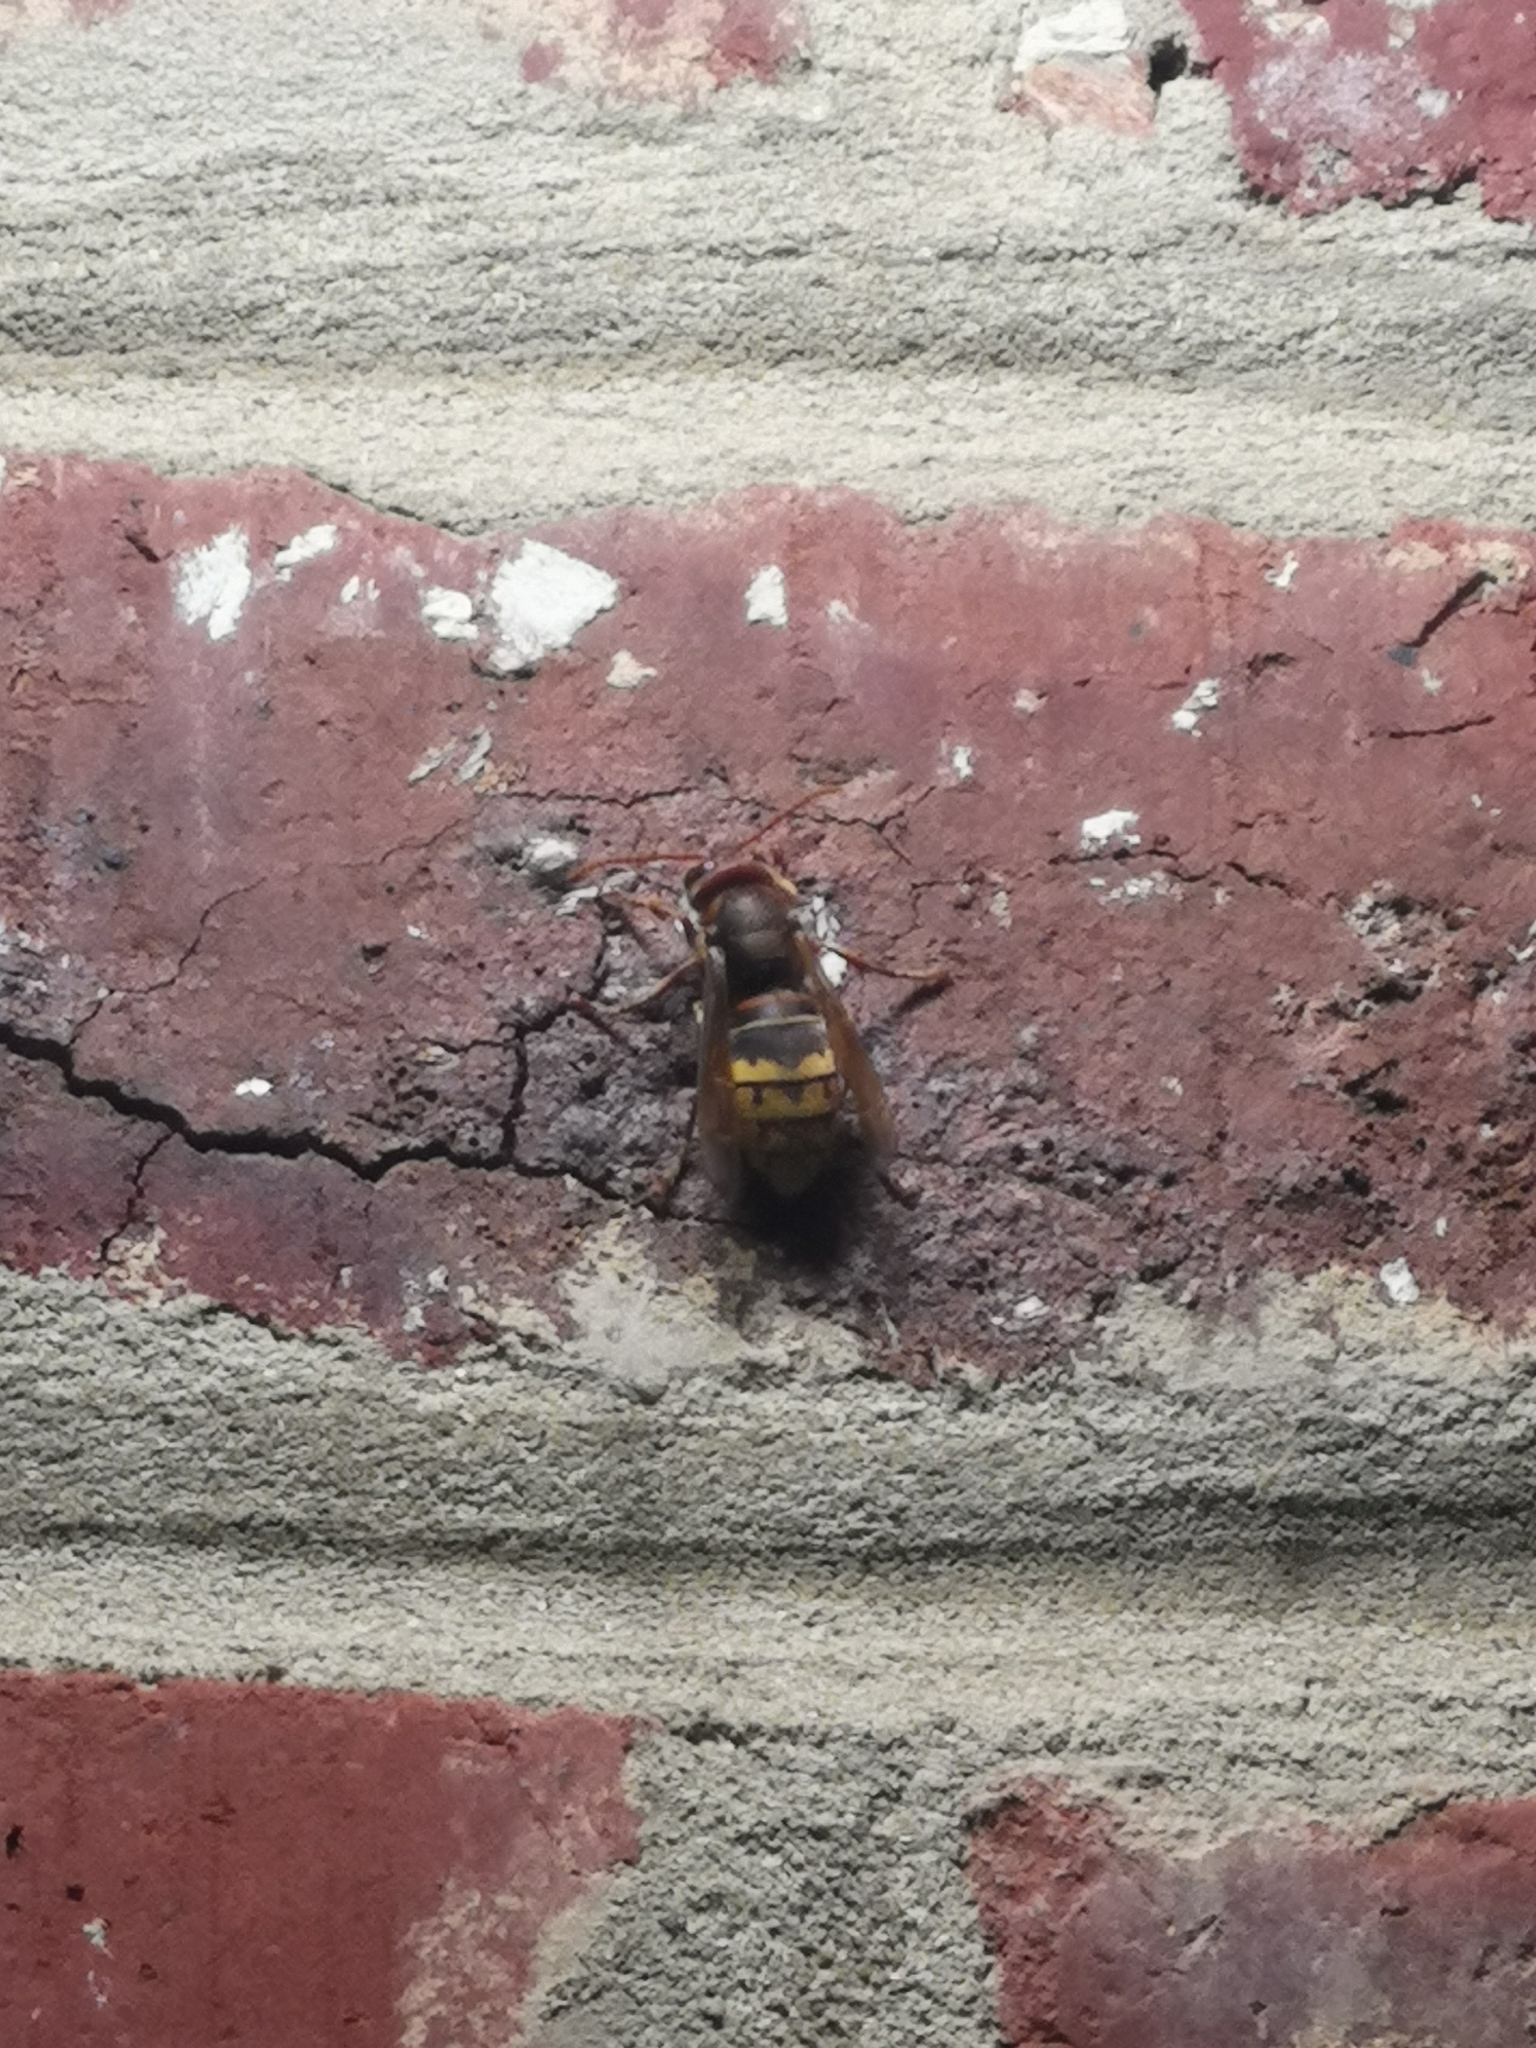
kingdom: Animalia
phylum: Arthropoda
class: Insecta
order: Hymenoptera
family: Vespidae
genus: Vespa
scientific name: Vespa crabro
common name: Hornet
